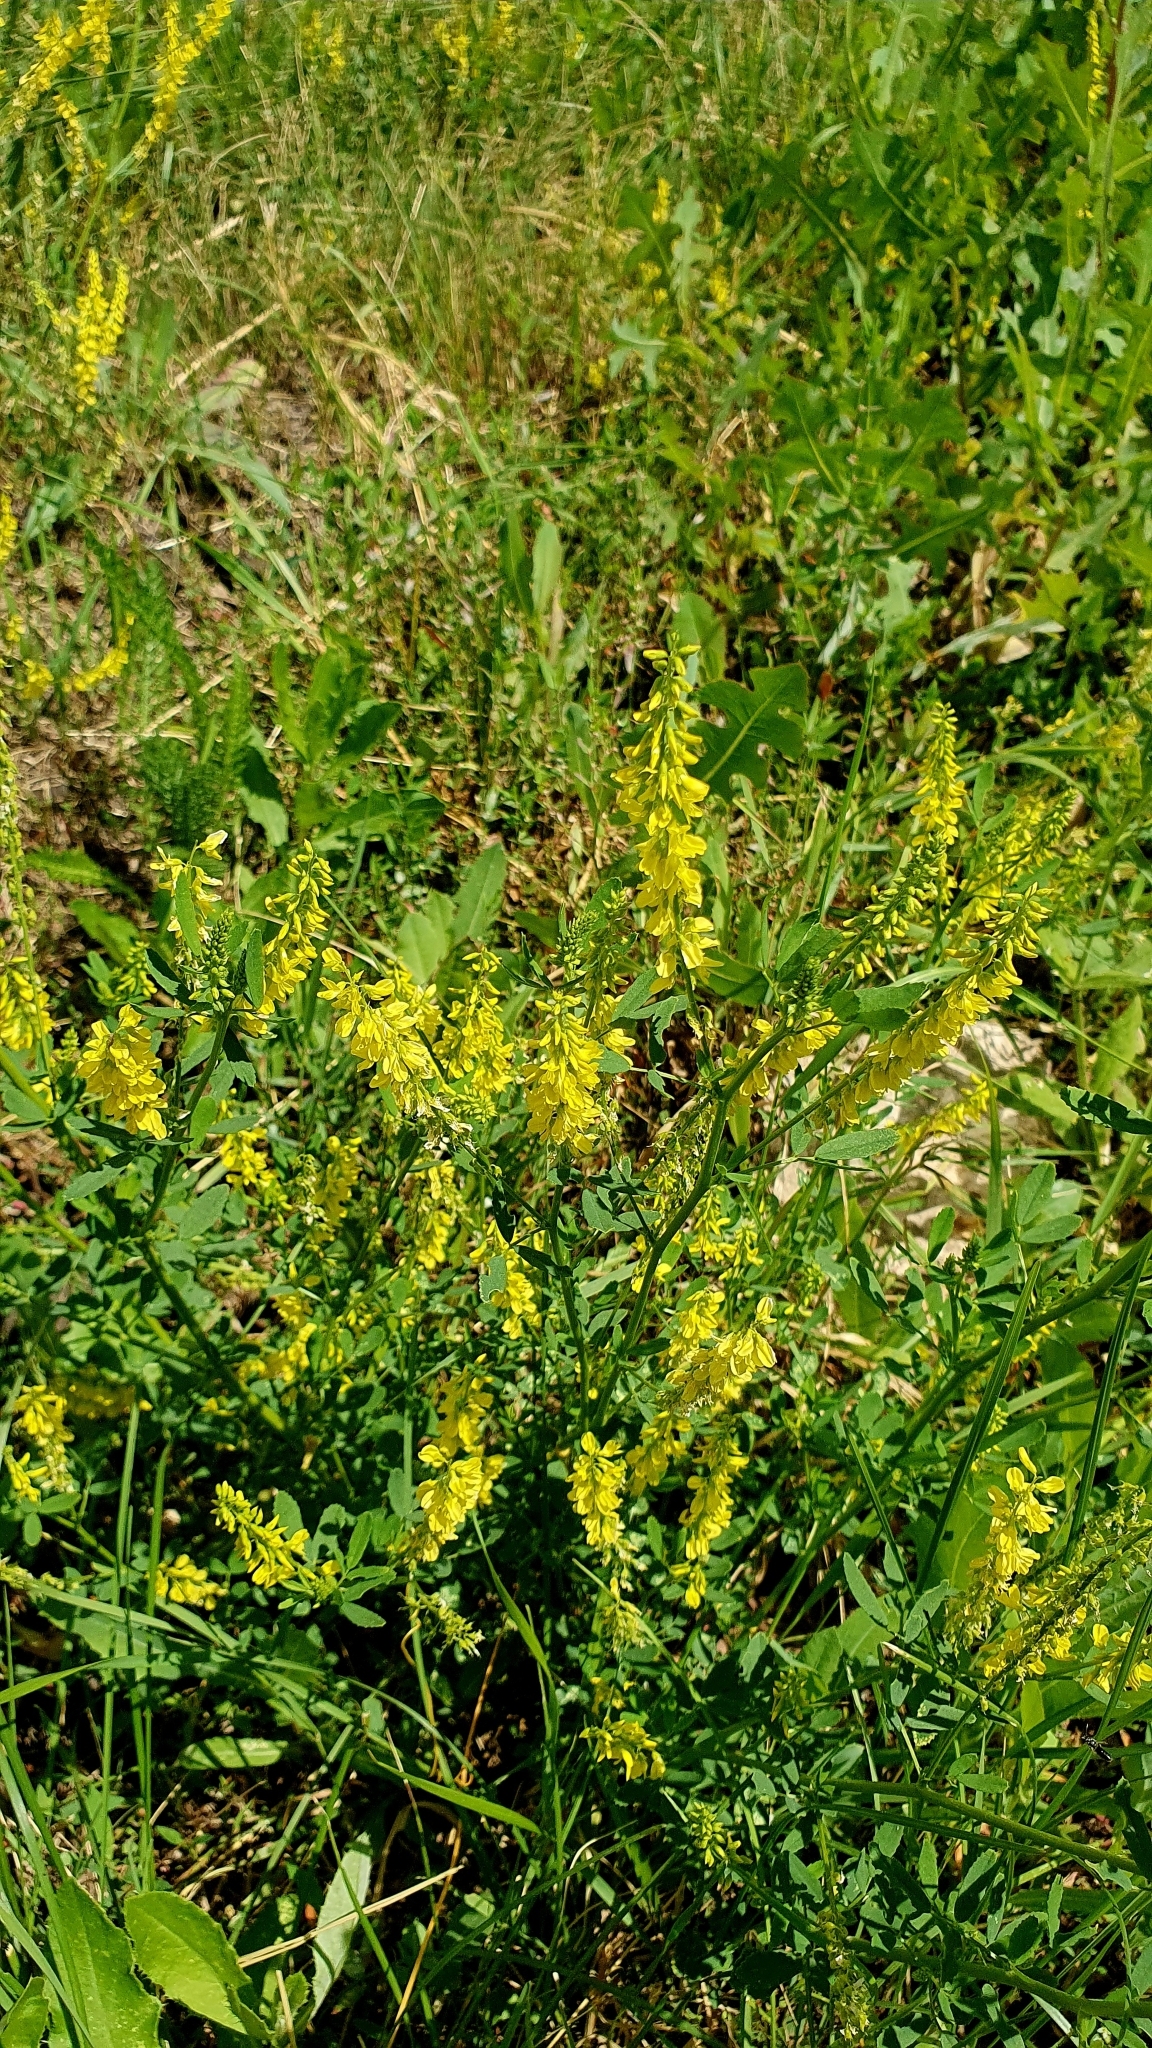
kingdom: Plantae
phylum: Tracheophyta
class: Magnoliopsida
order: Fabales
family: Fabaceae
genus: Melilotus
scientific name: Melilotus officinalis
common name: Sweetclover
